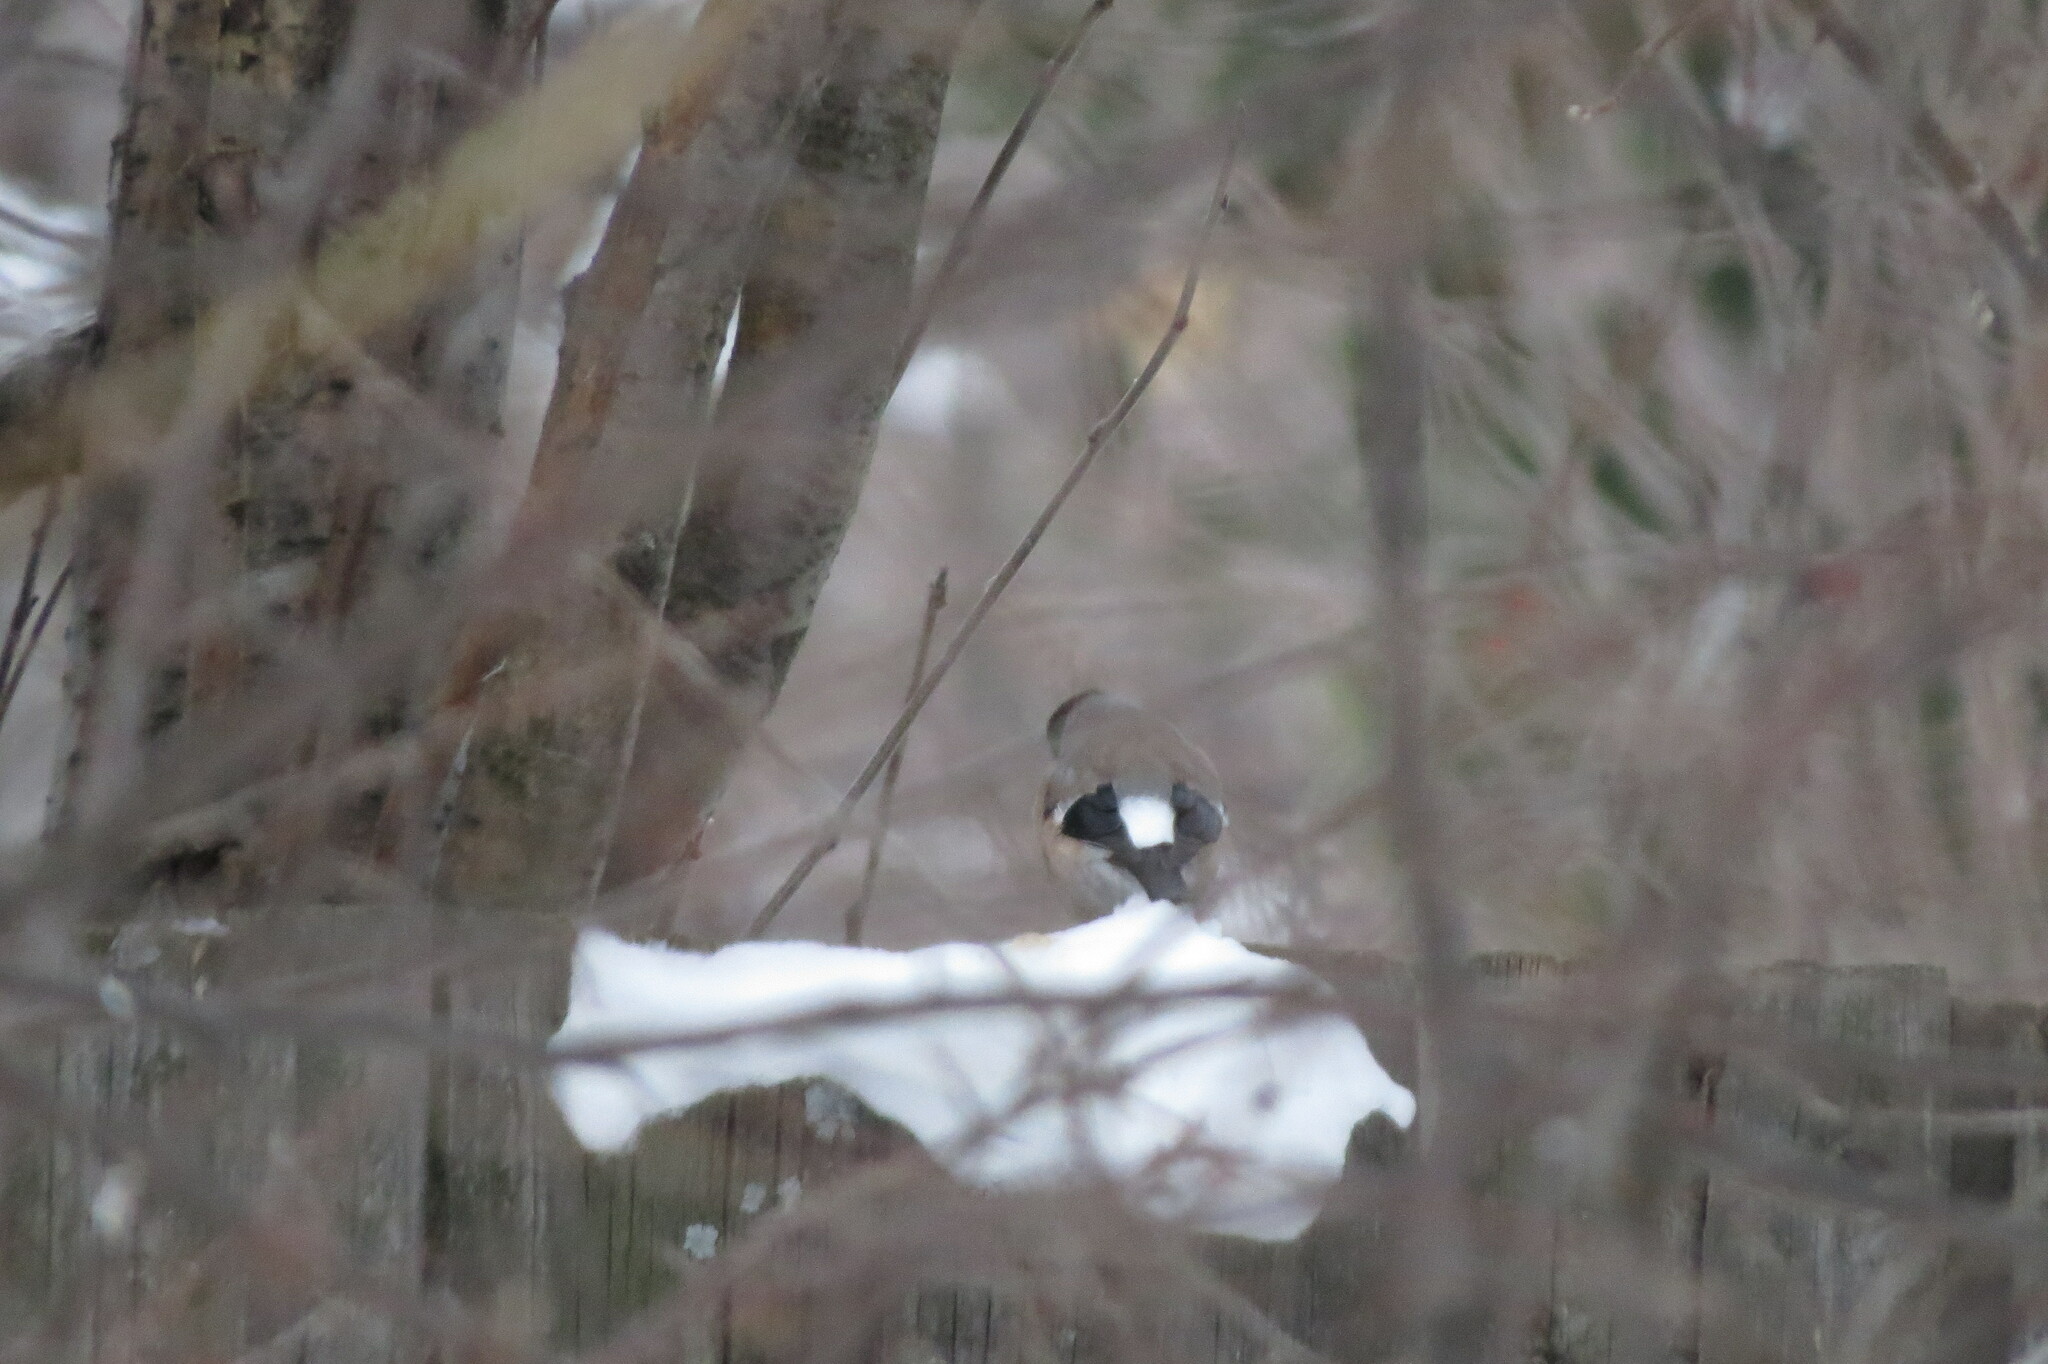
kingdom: Animalia
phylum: Chordata
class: Aves
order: Passeriformes
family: Fringillidae
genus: Pyrrhula
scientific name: Pyrrhula pyrrhula
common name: Eurasian bullfinch
